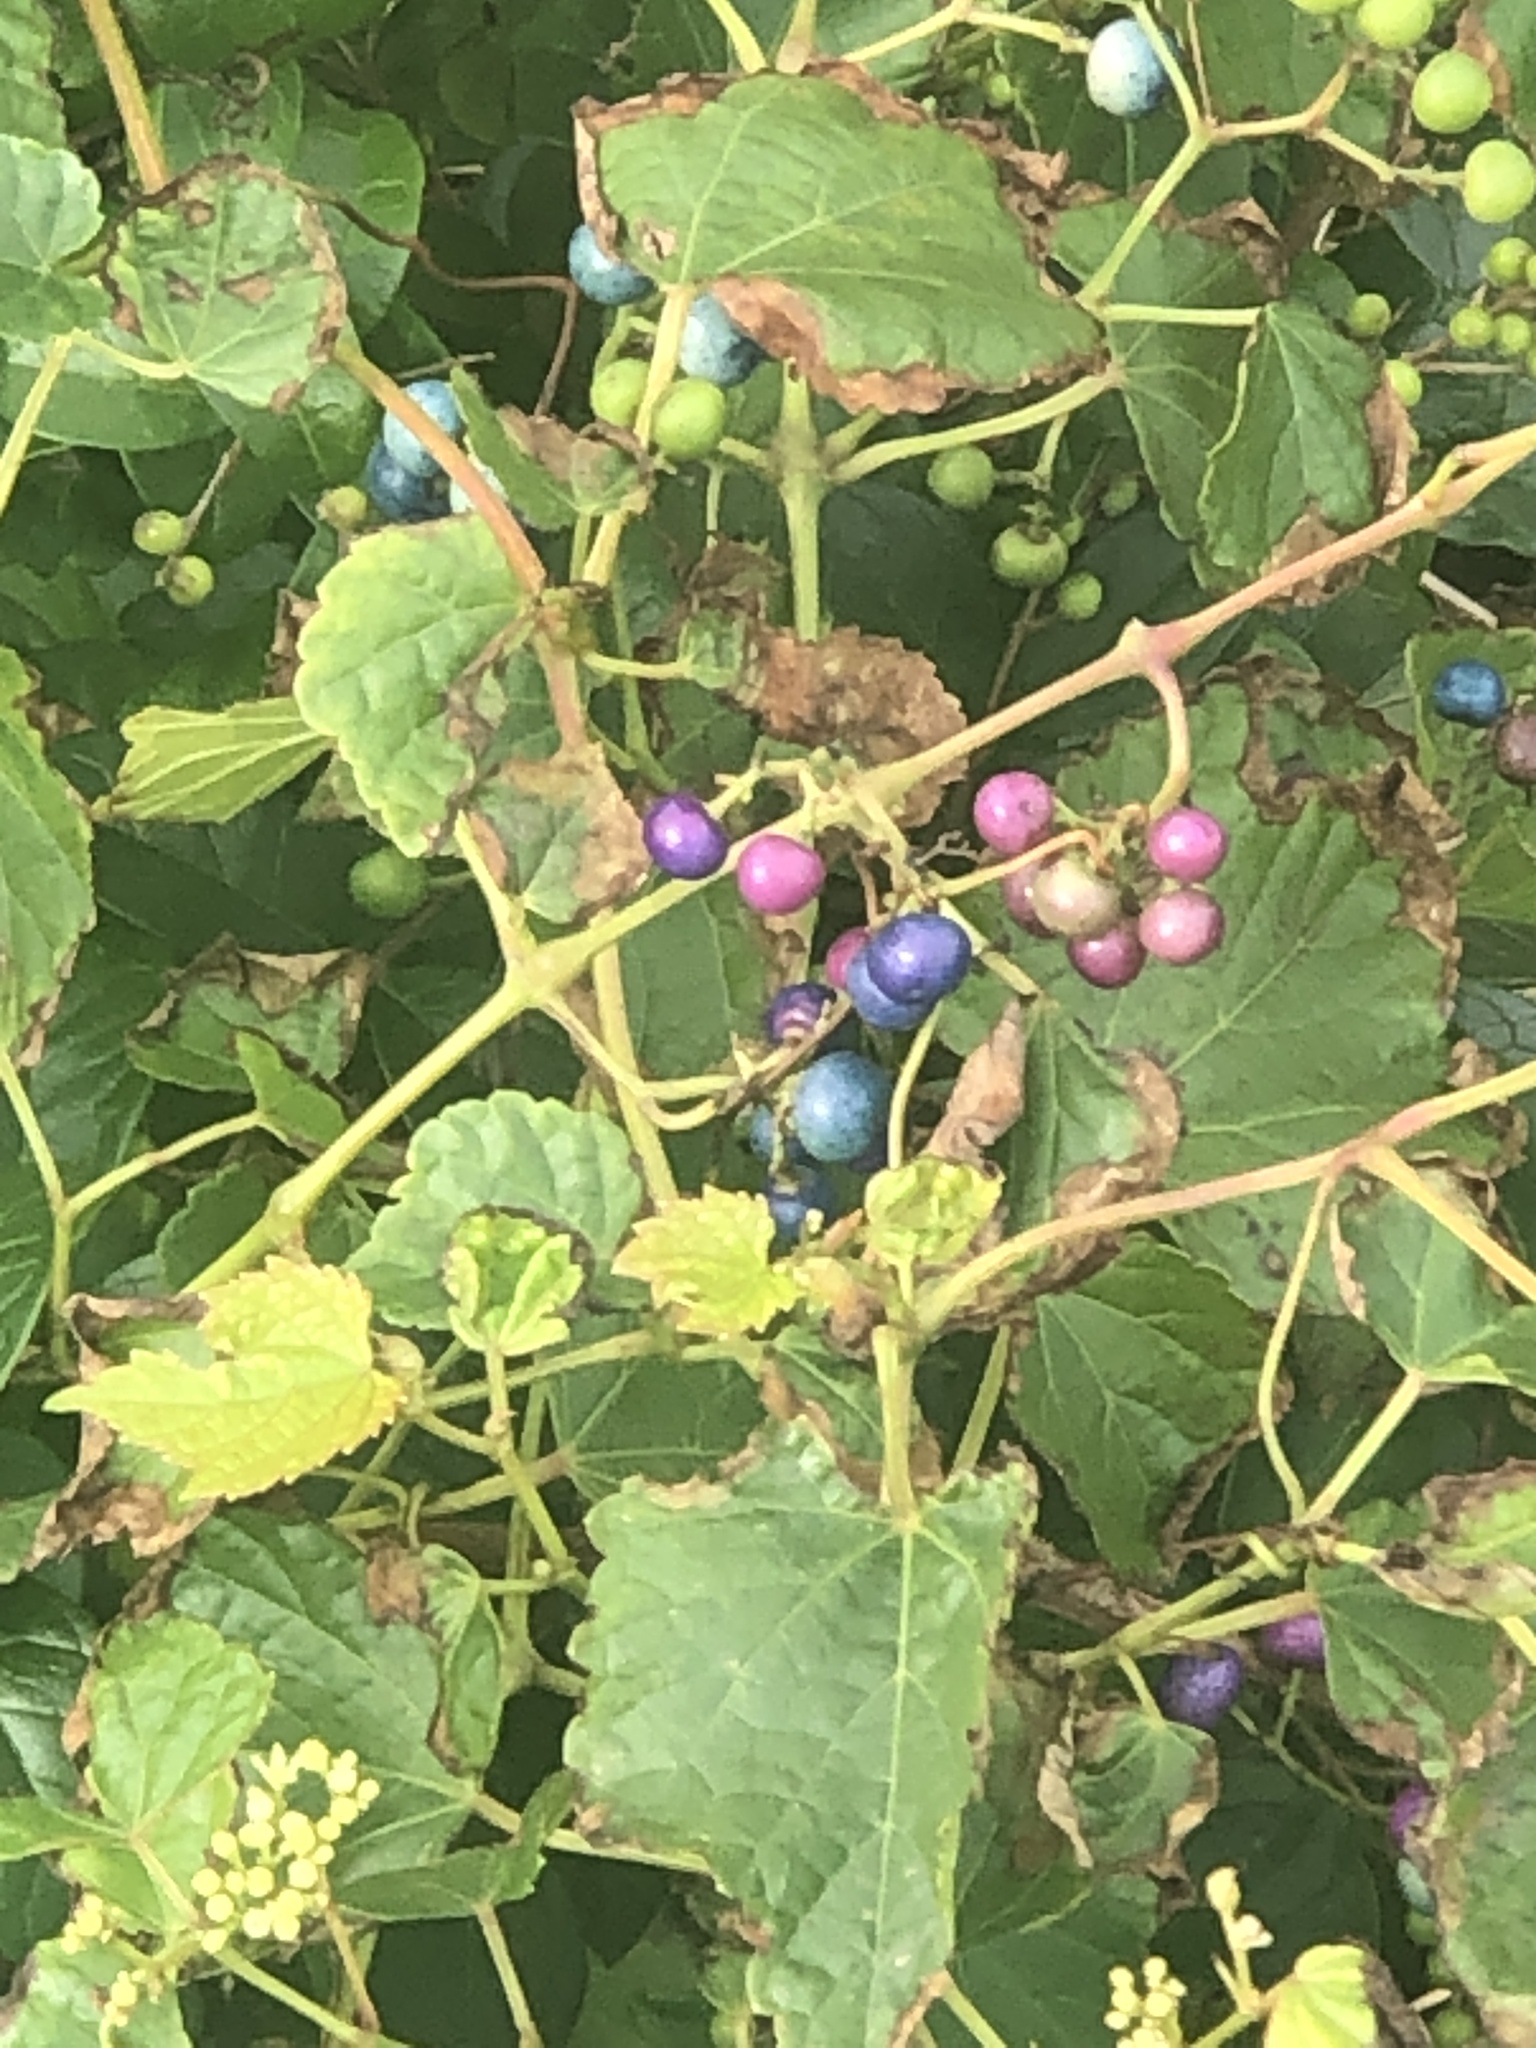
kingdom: Plantae
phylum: Tracheophyta
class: Magnoliopsida
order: Vitales
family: Vitaceae
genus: Ampelopsis
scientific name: Ampelopsis glandulosa
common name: Amur peppervine
